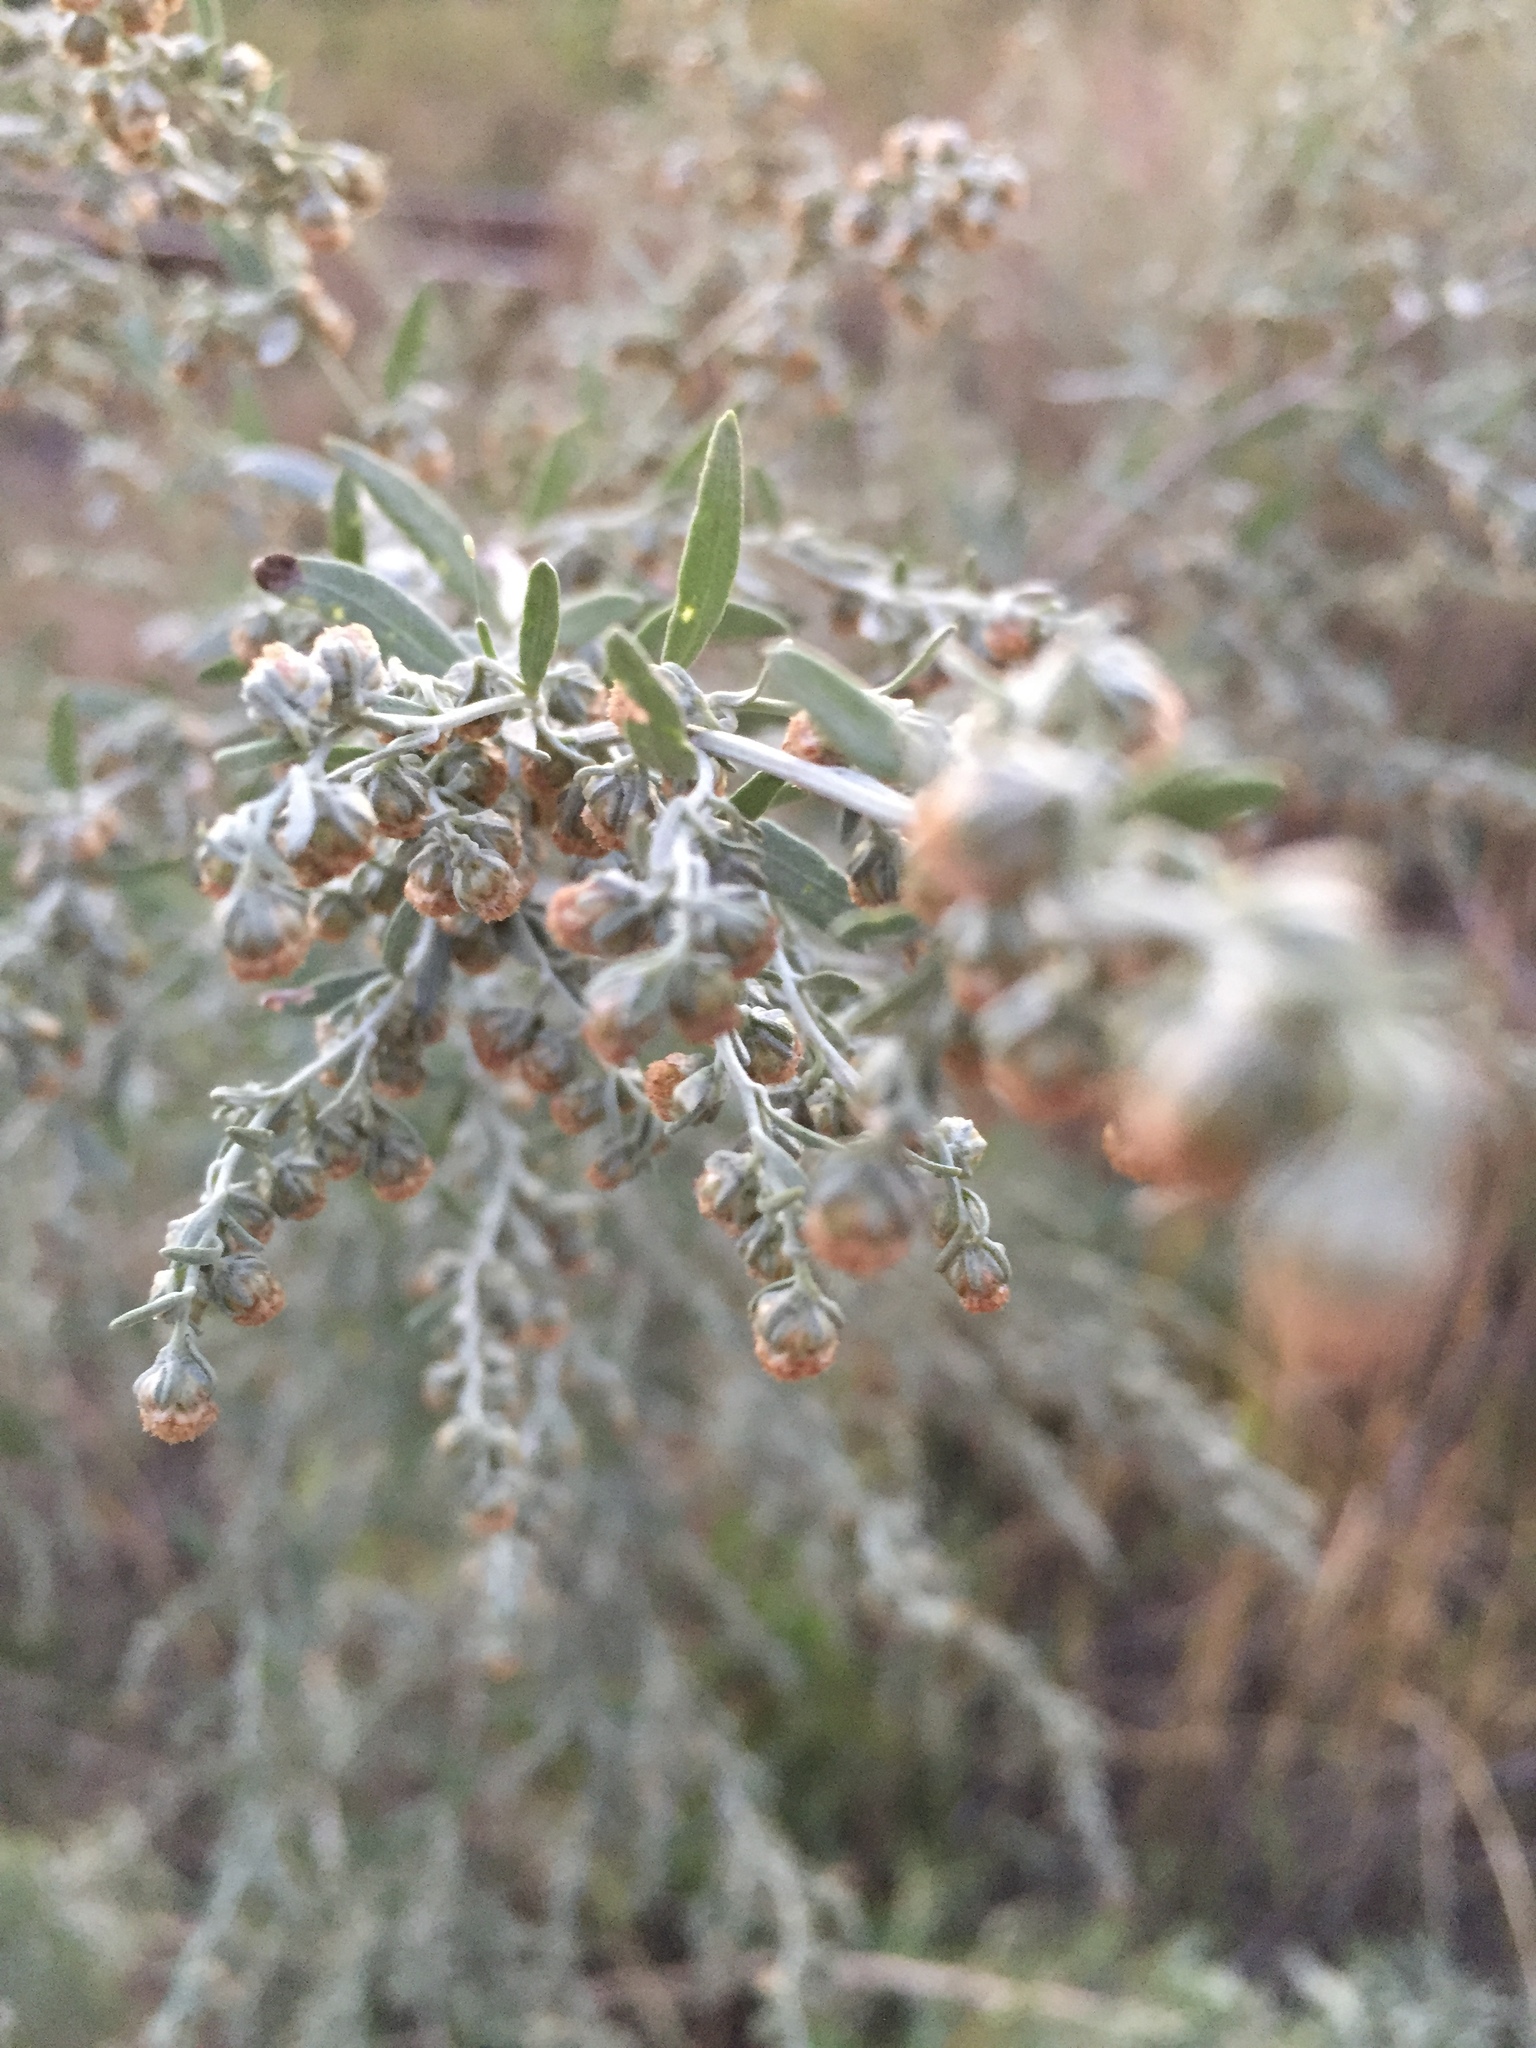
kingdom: Plantae
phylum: Tracheophyta
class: Magnoliopsida
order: Asterales
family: Asteraceae
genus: Artemisia
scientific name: Artemisia absinthium
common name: Wormwood
